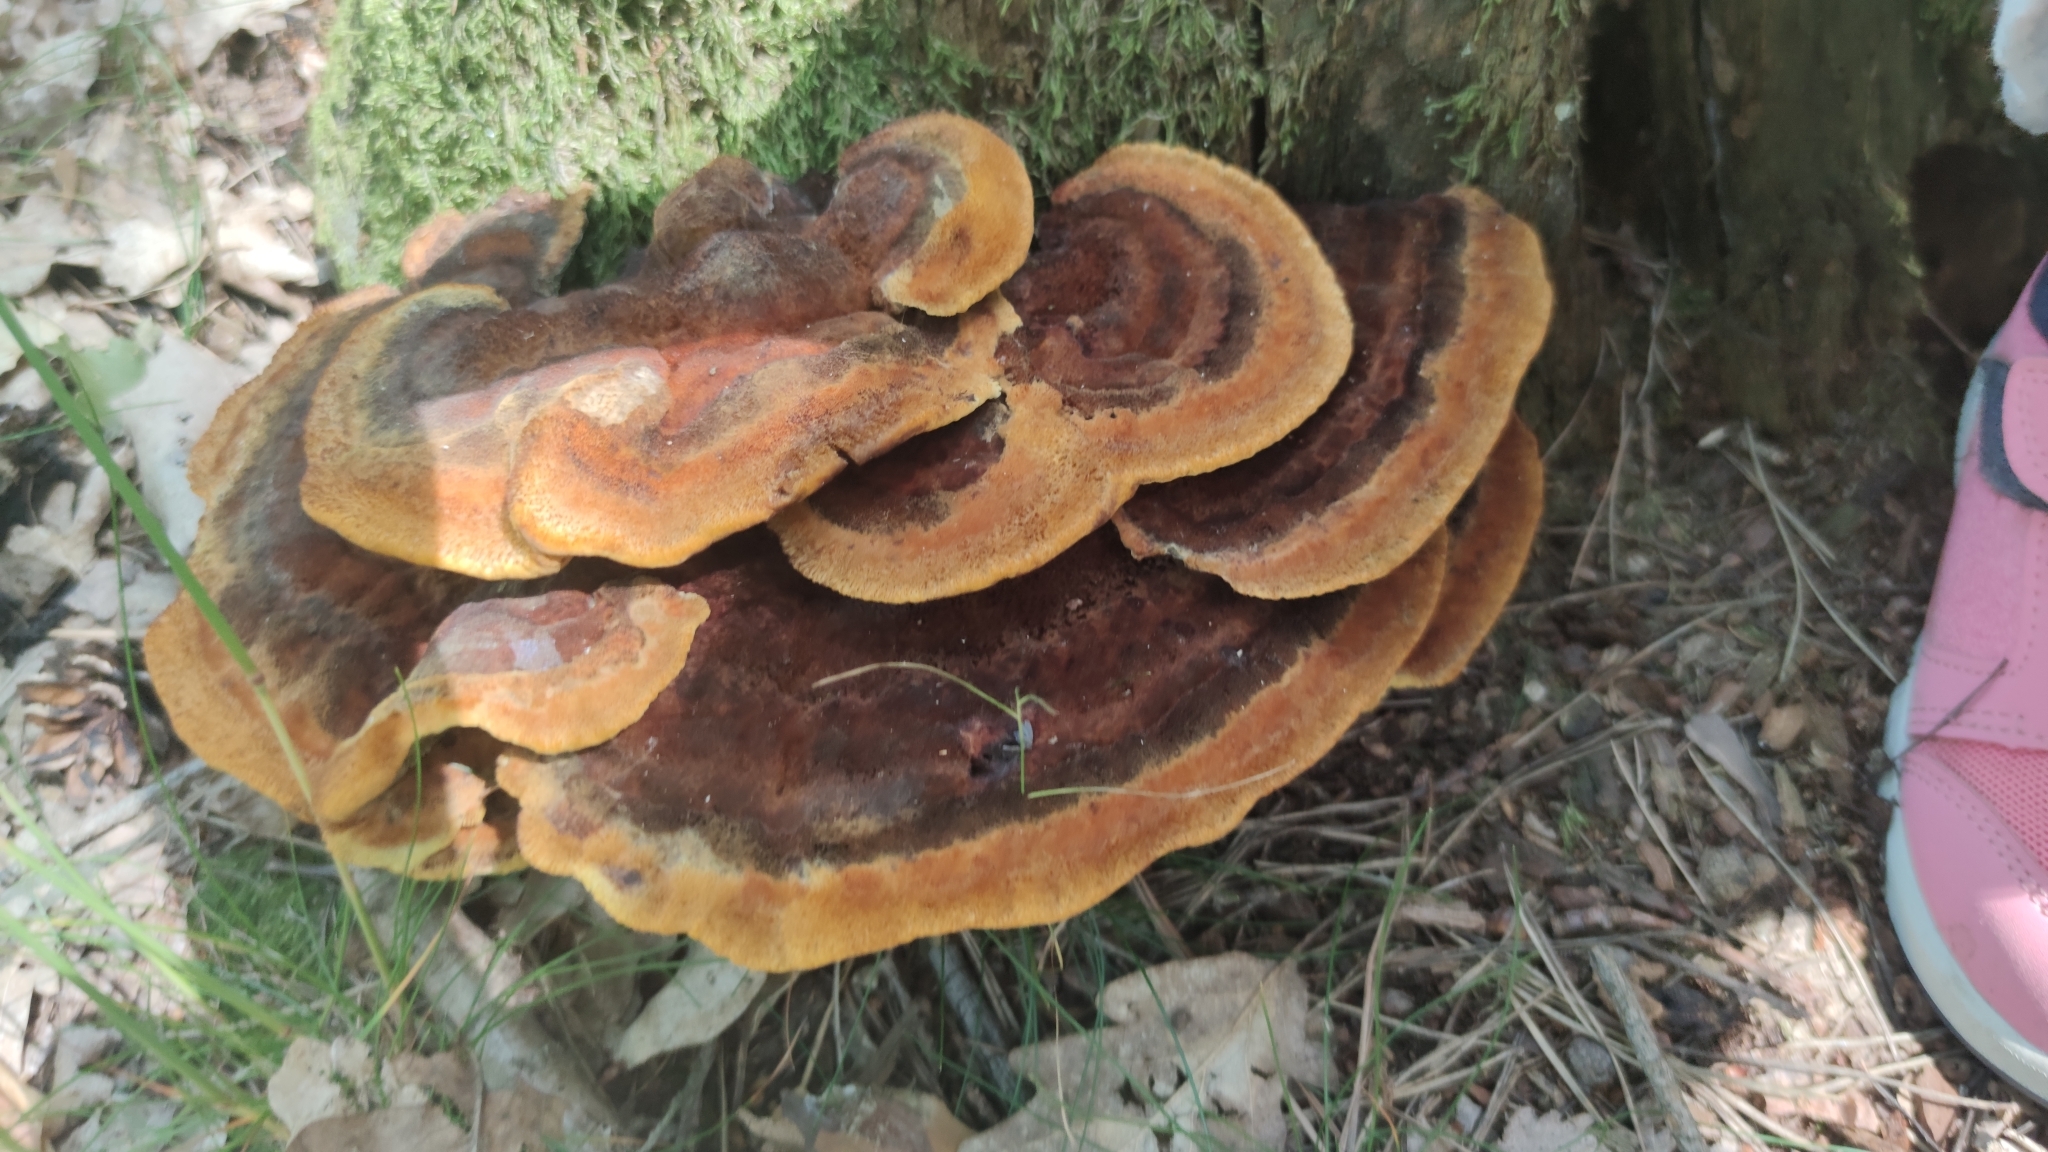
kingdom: Fungi
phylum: Basidiomycota
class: Agaricomycetes
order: Polyporales
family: Laetiporaceae
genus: Phaeolus
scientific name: Phaeolus schweinitzii
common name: Dyer's mazegill
